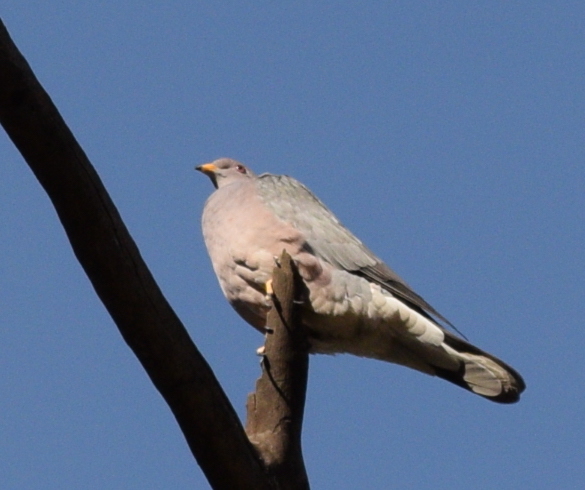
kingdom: Animalia
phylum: Chordata
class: Aves
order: Columbiformes
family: Columbidae
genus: Patagioenas
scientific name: Patagioenas fasciata
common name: Band-tailed pigeon
